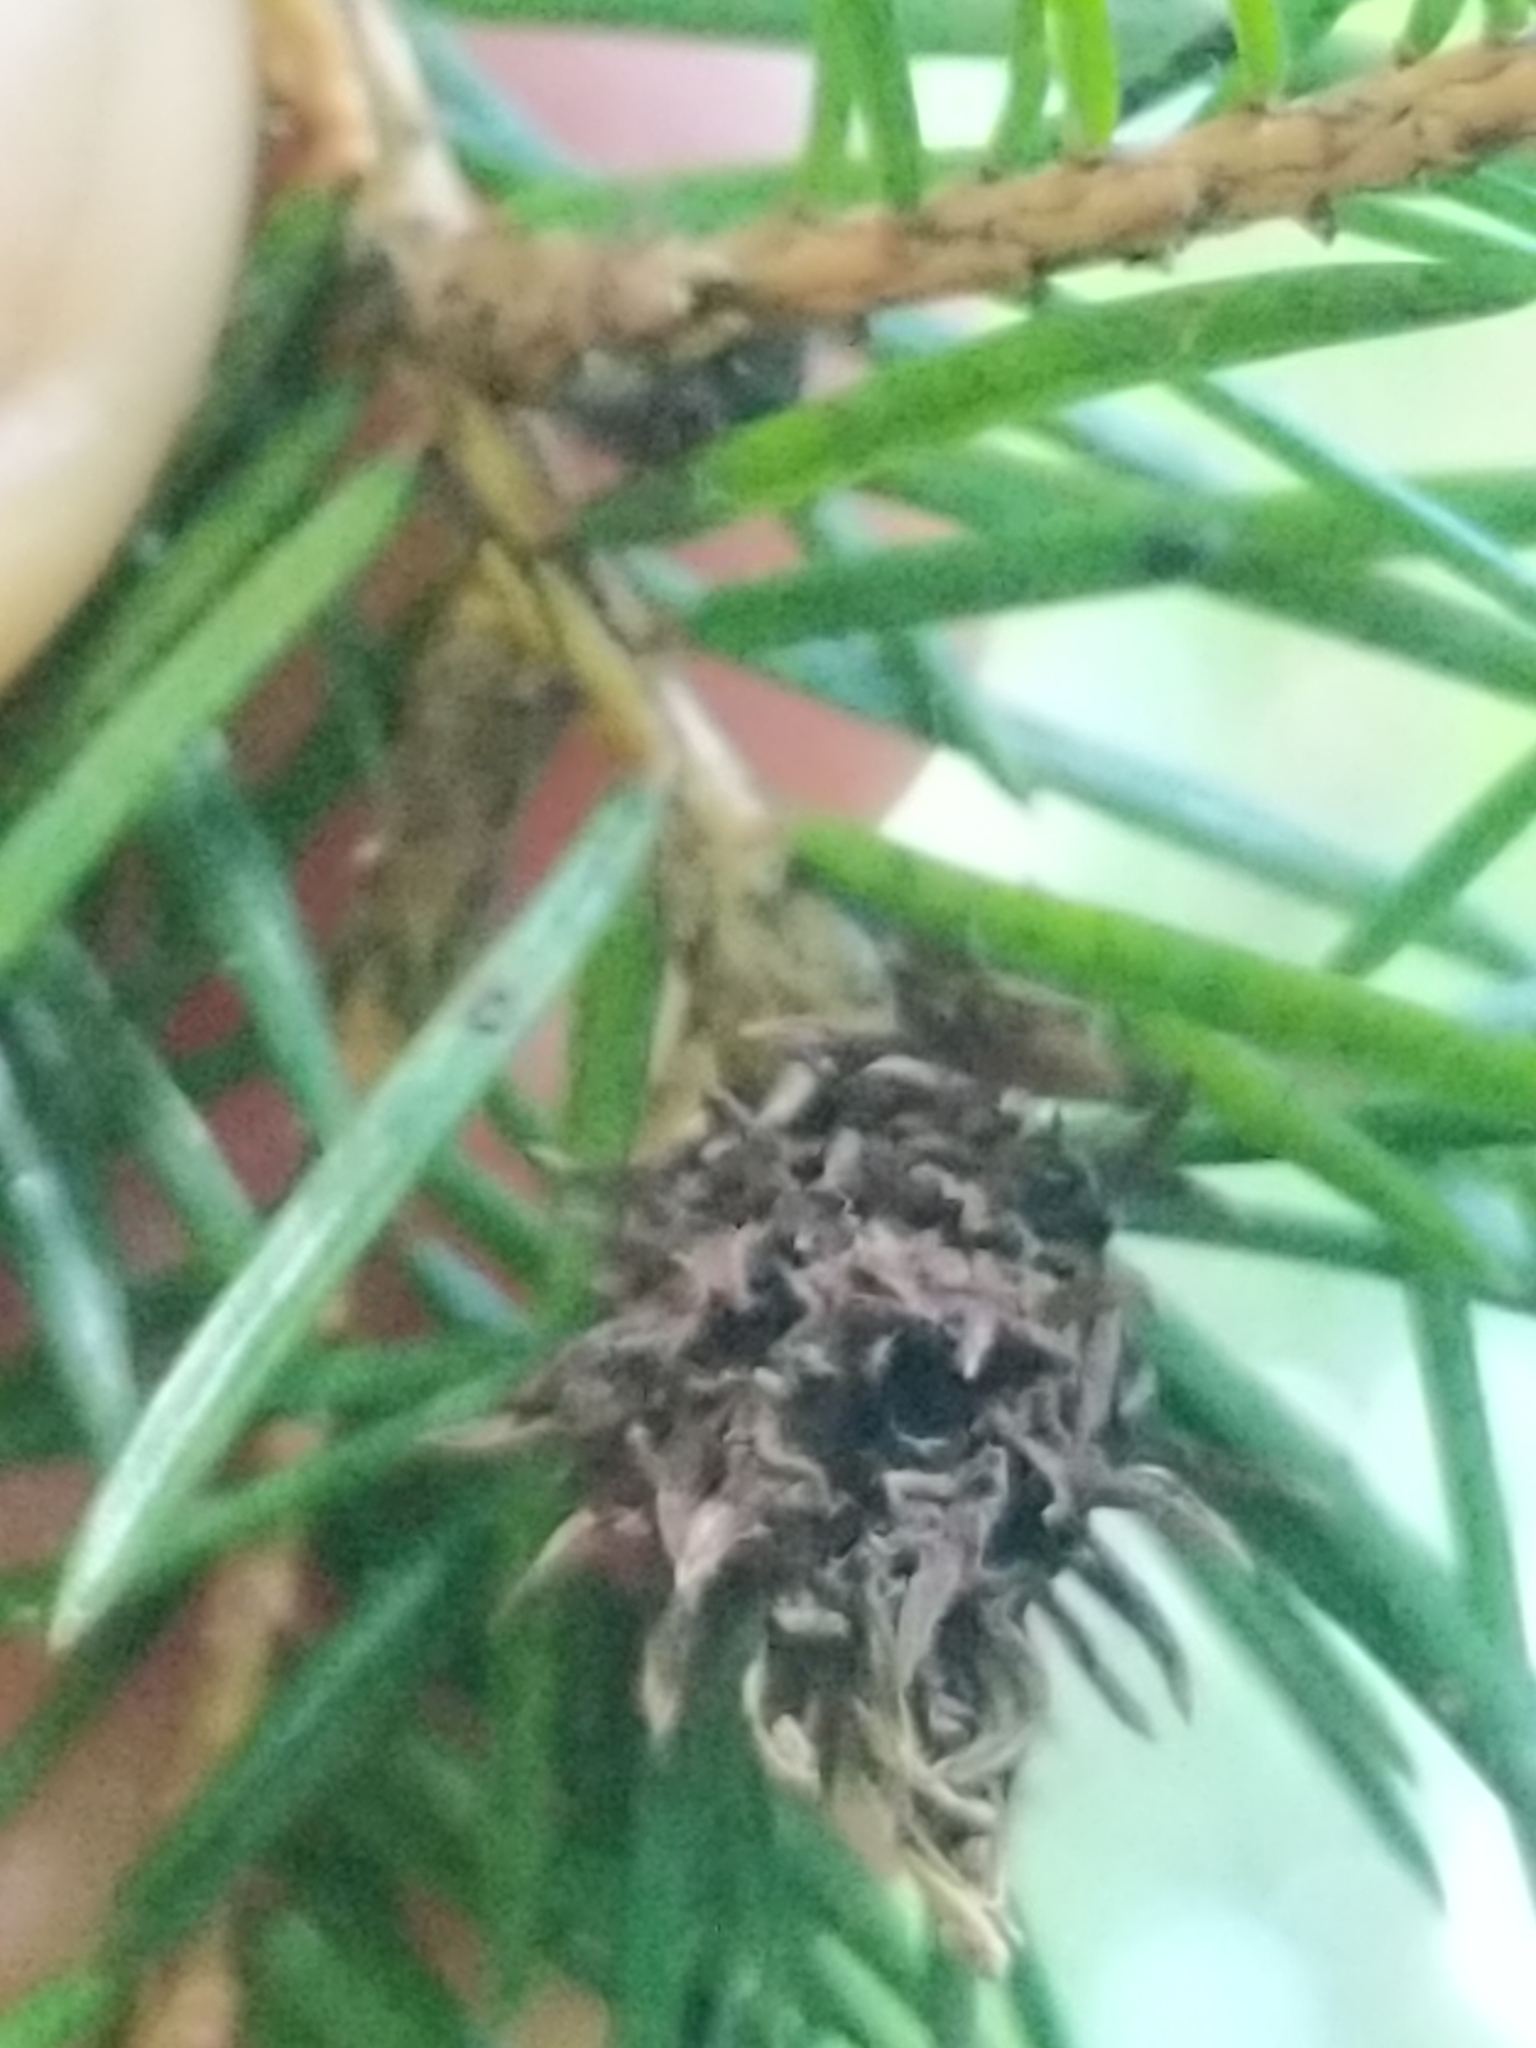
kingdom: Animalia
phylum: Arthropoda
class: Insecta
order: Hemiptera
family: Adelgidae
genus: Adelges
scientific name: Adelges abietis
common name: Eastern spruce gall adelgid
